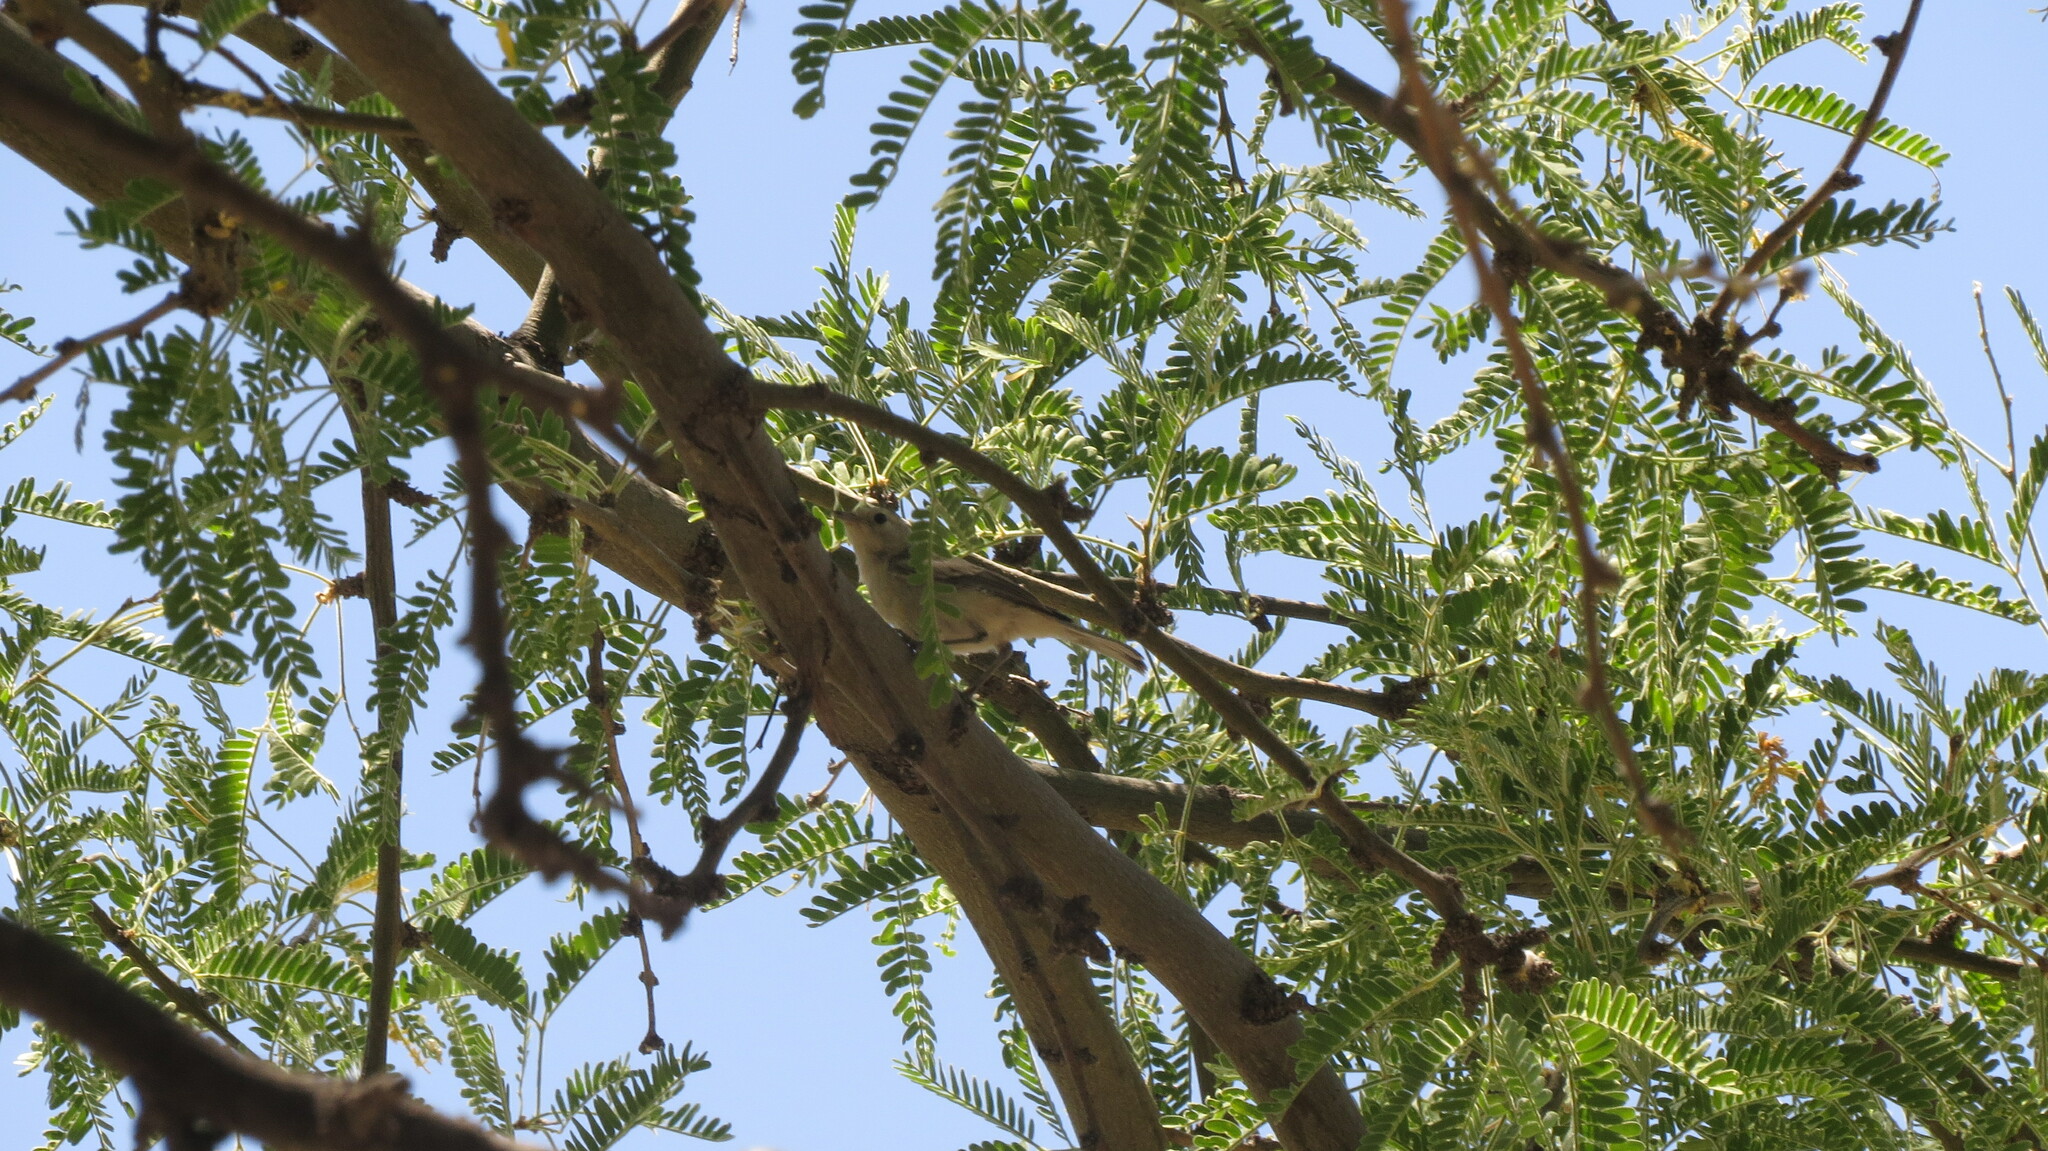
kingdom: Animalia
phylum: Chordata
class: Aves
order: Passeriformes
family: Parulidae
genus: Leiothlypis
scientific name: Leiothlypis luciae
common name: Lucy's warbler
